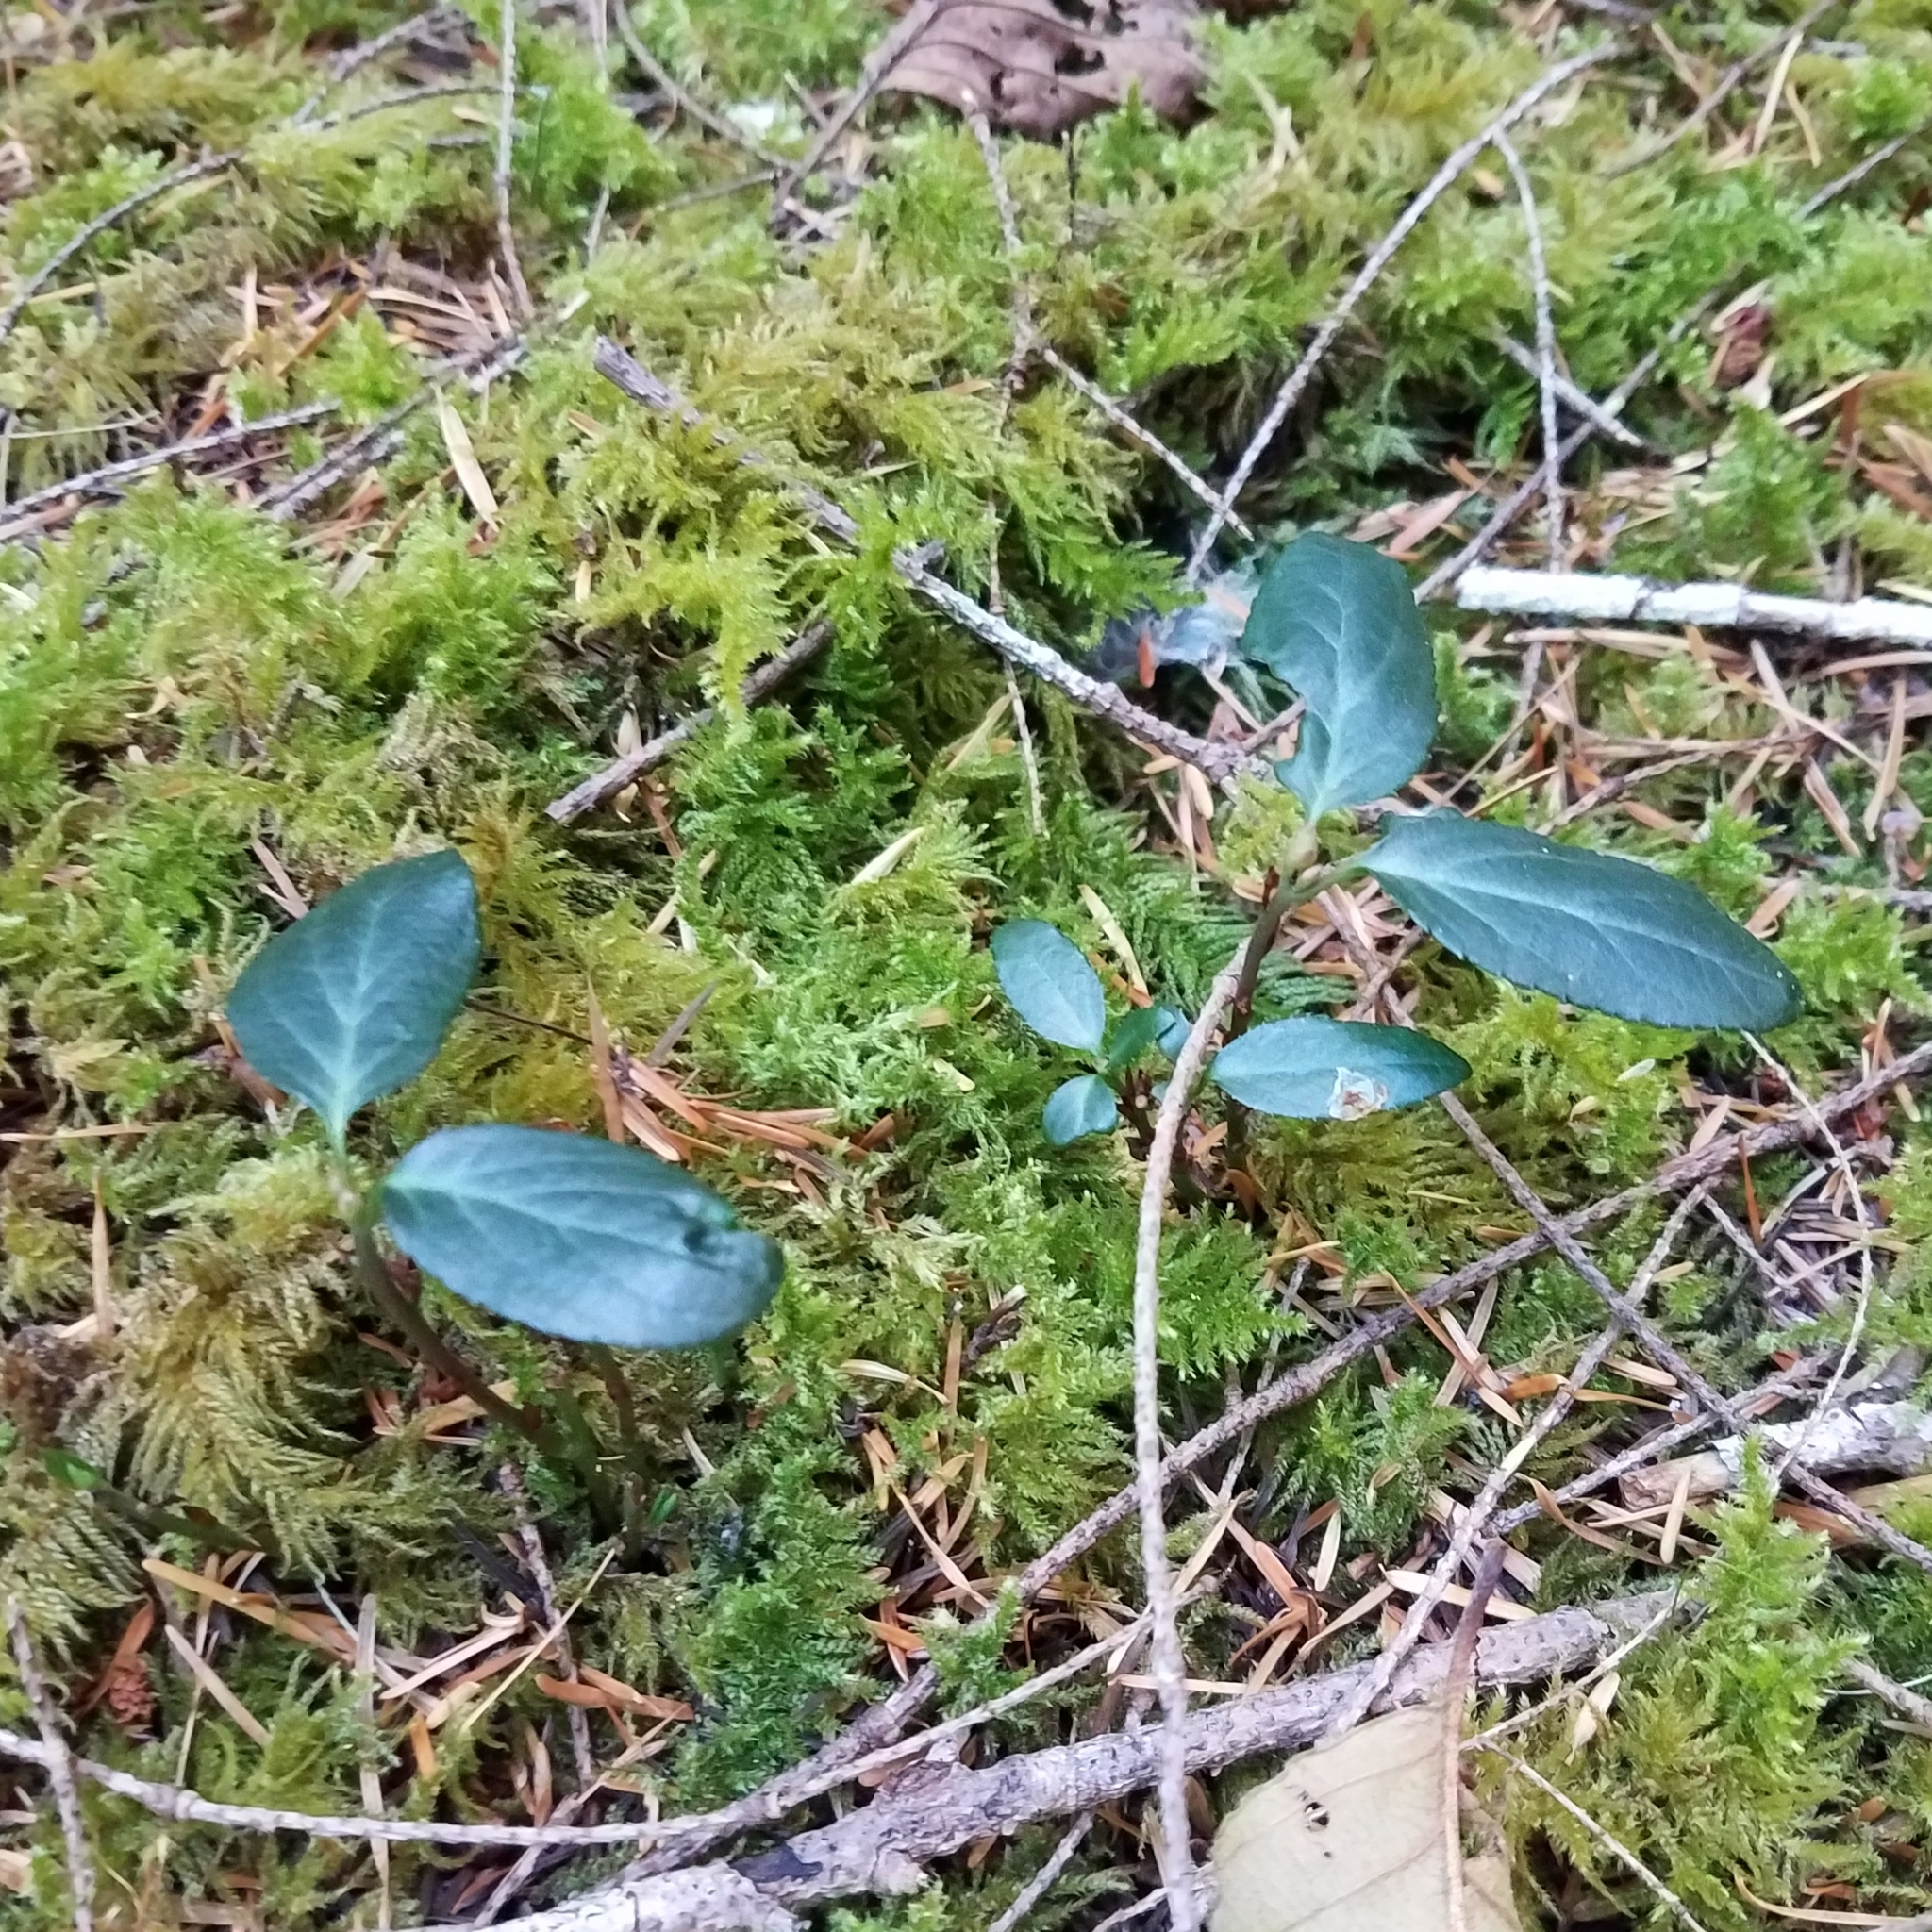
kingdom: Plantae
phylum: Tracheophyta
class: Magnoliopsida
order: Ericales
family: Ericaceae
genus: Chimaphila
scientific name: Chimaphila menziesii
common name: Menzies' pipsissewa
